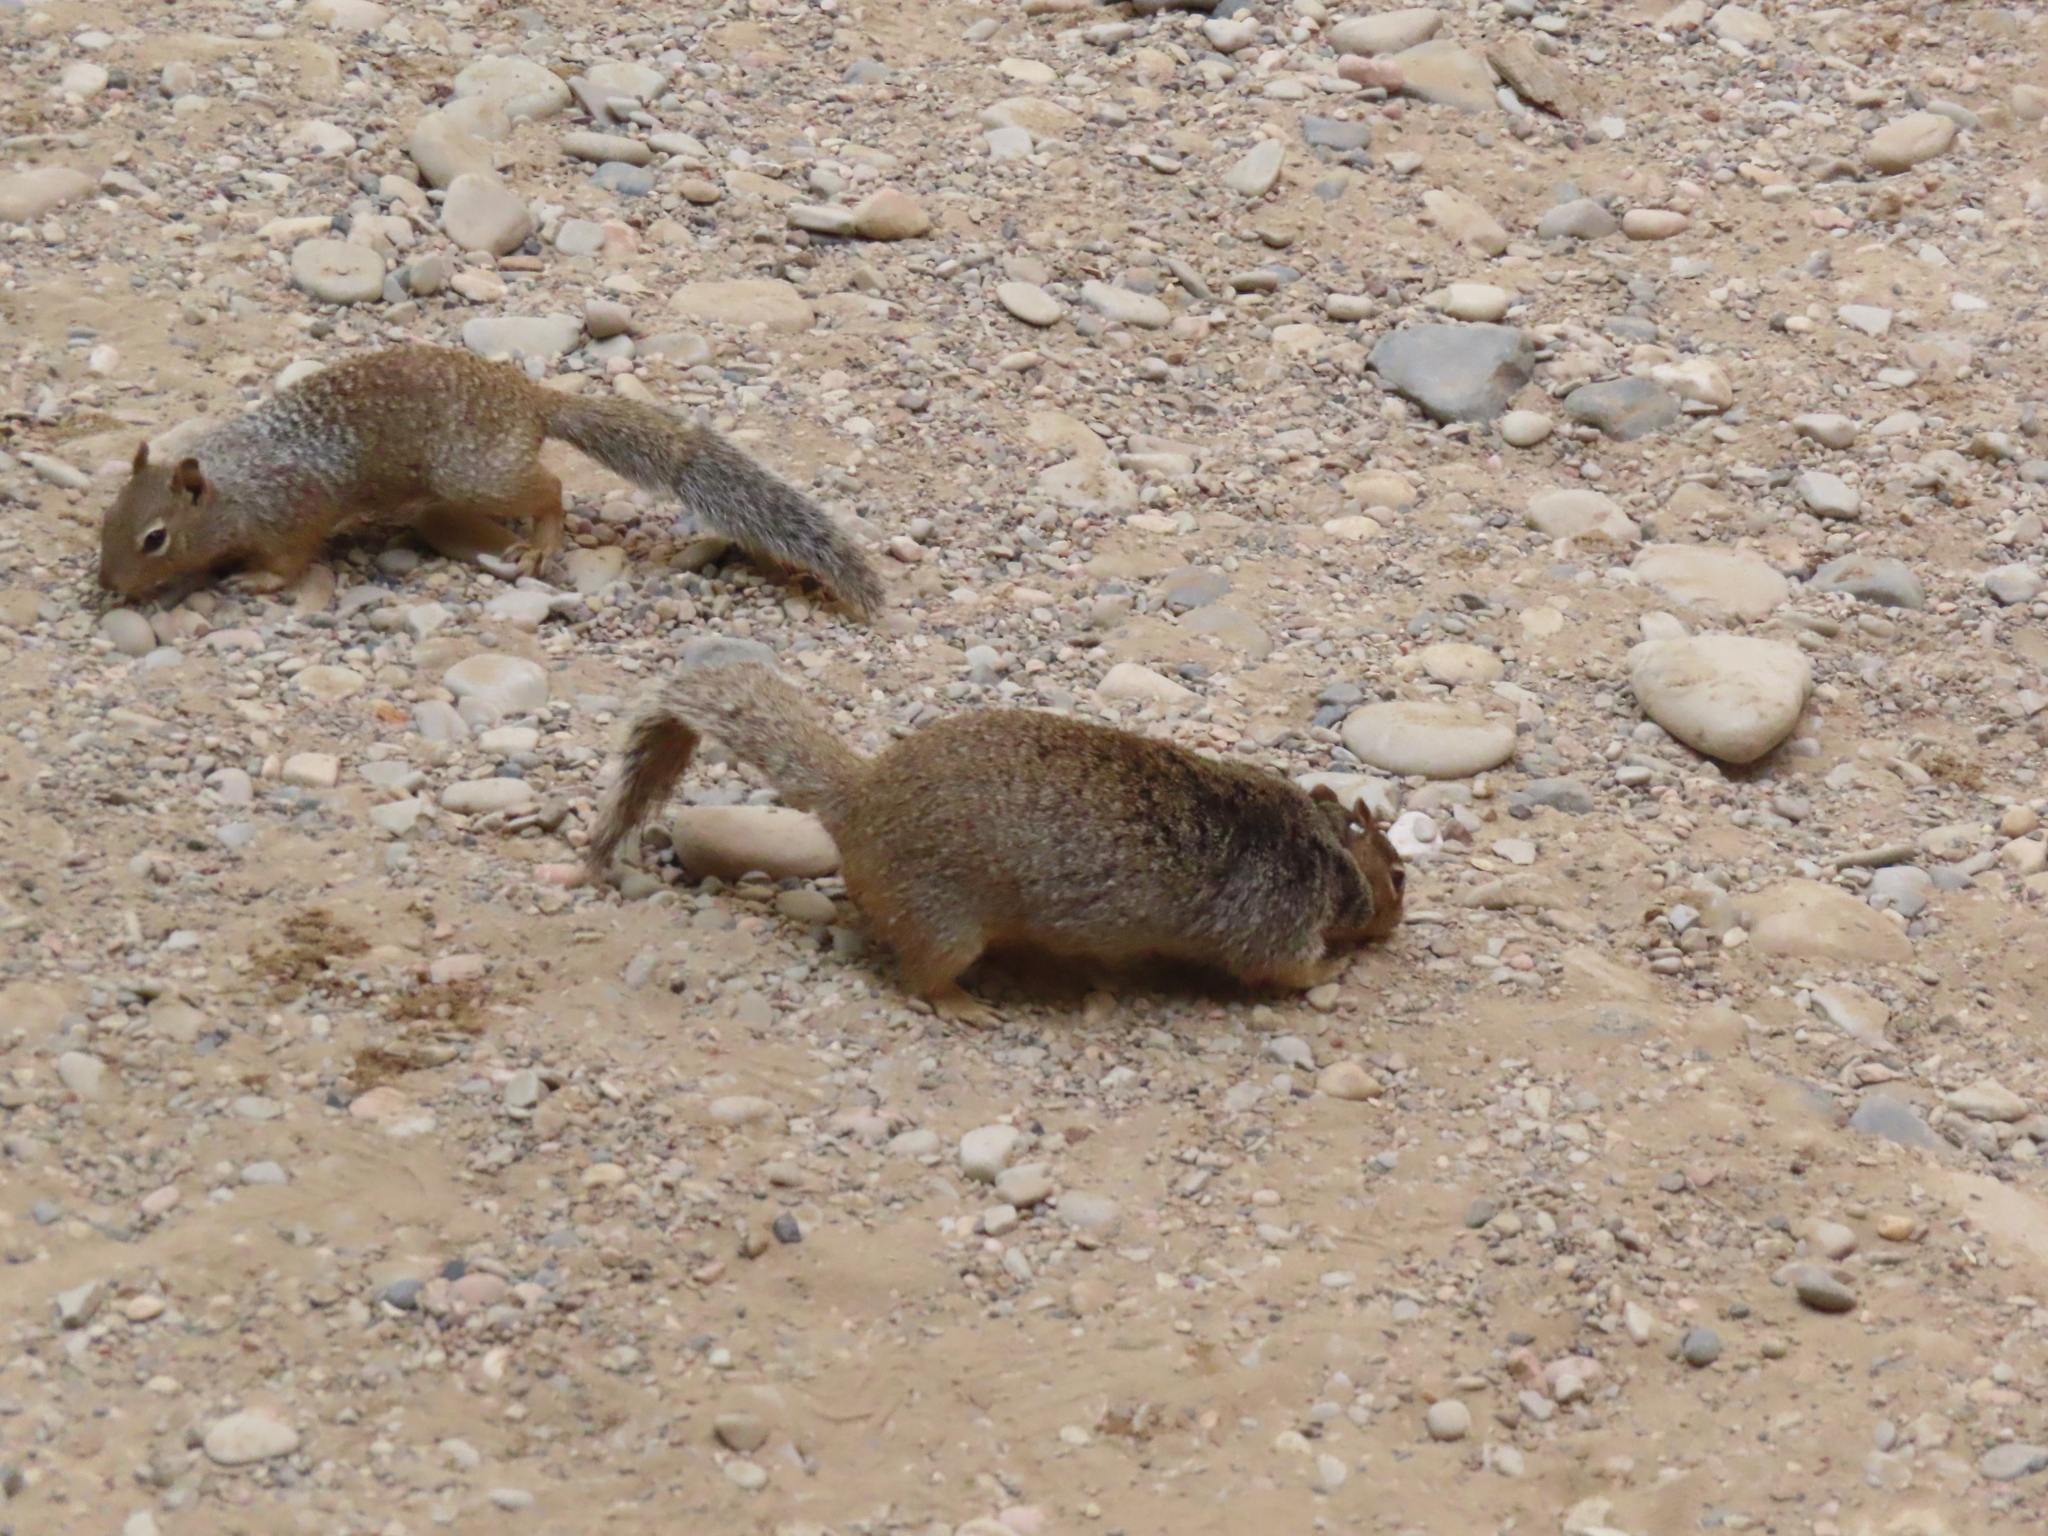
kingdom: Animalia
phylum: Chordata
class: Mammalia
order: Rodentia
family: Sciuridae
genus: Otospermophilus
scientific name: Otospermophilus variegatus
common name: Rock squirrel
